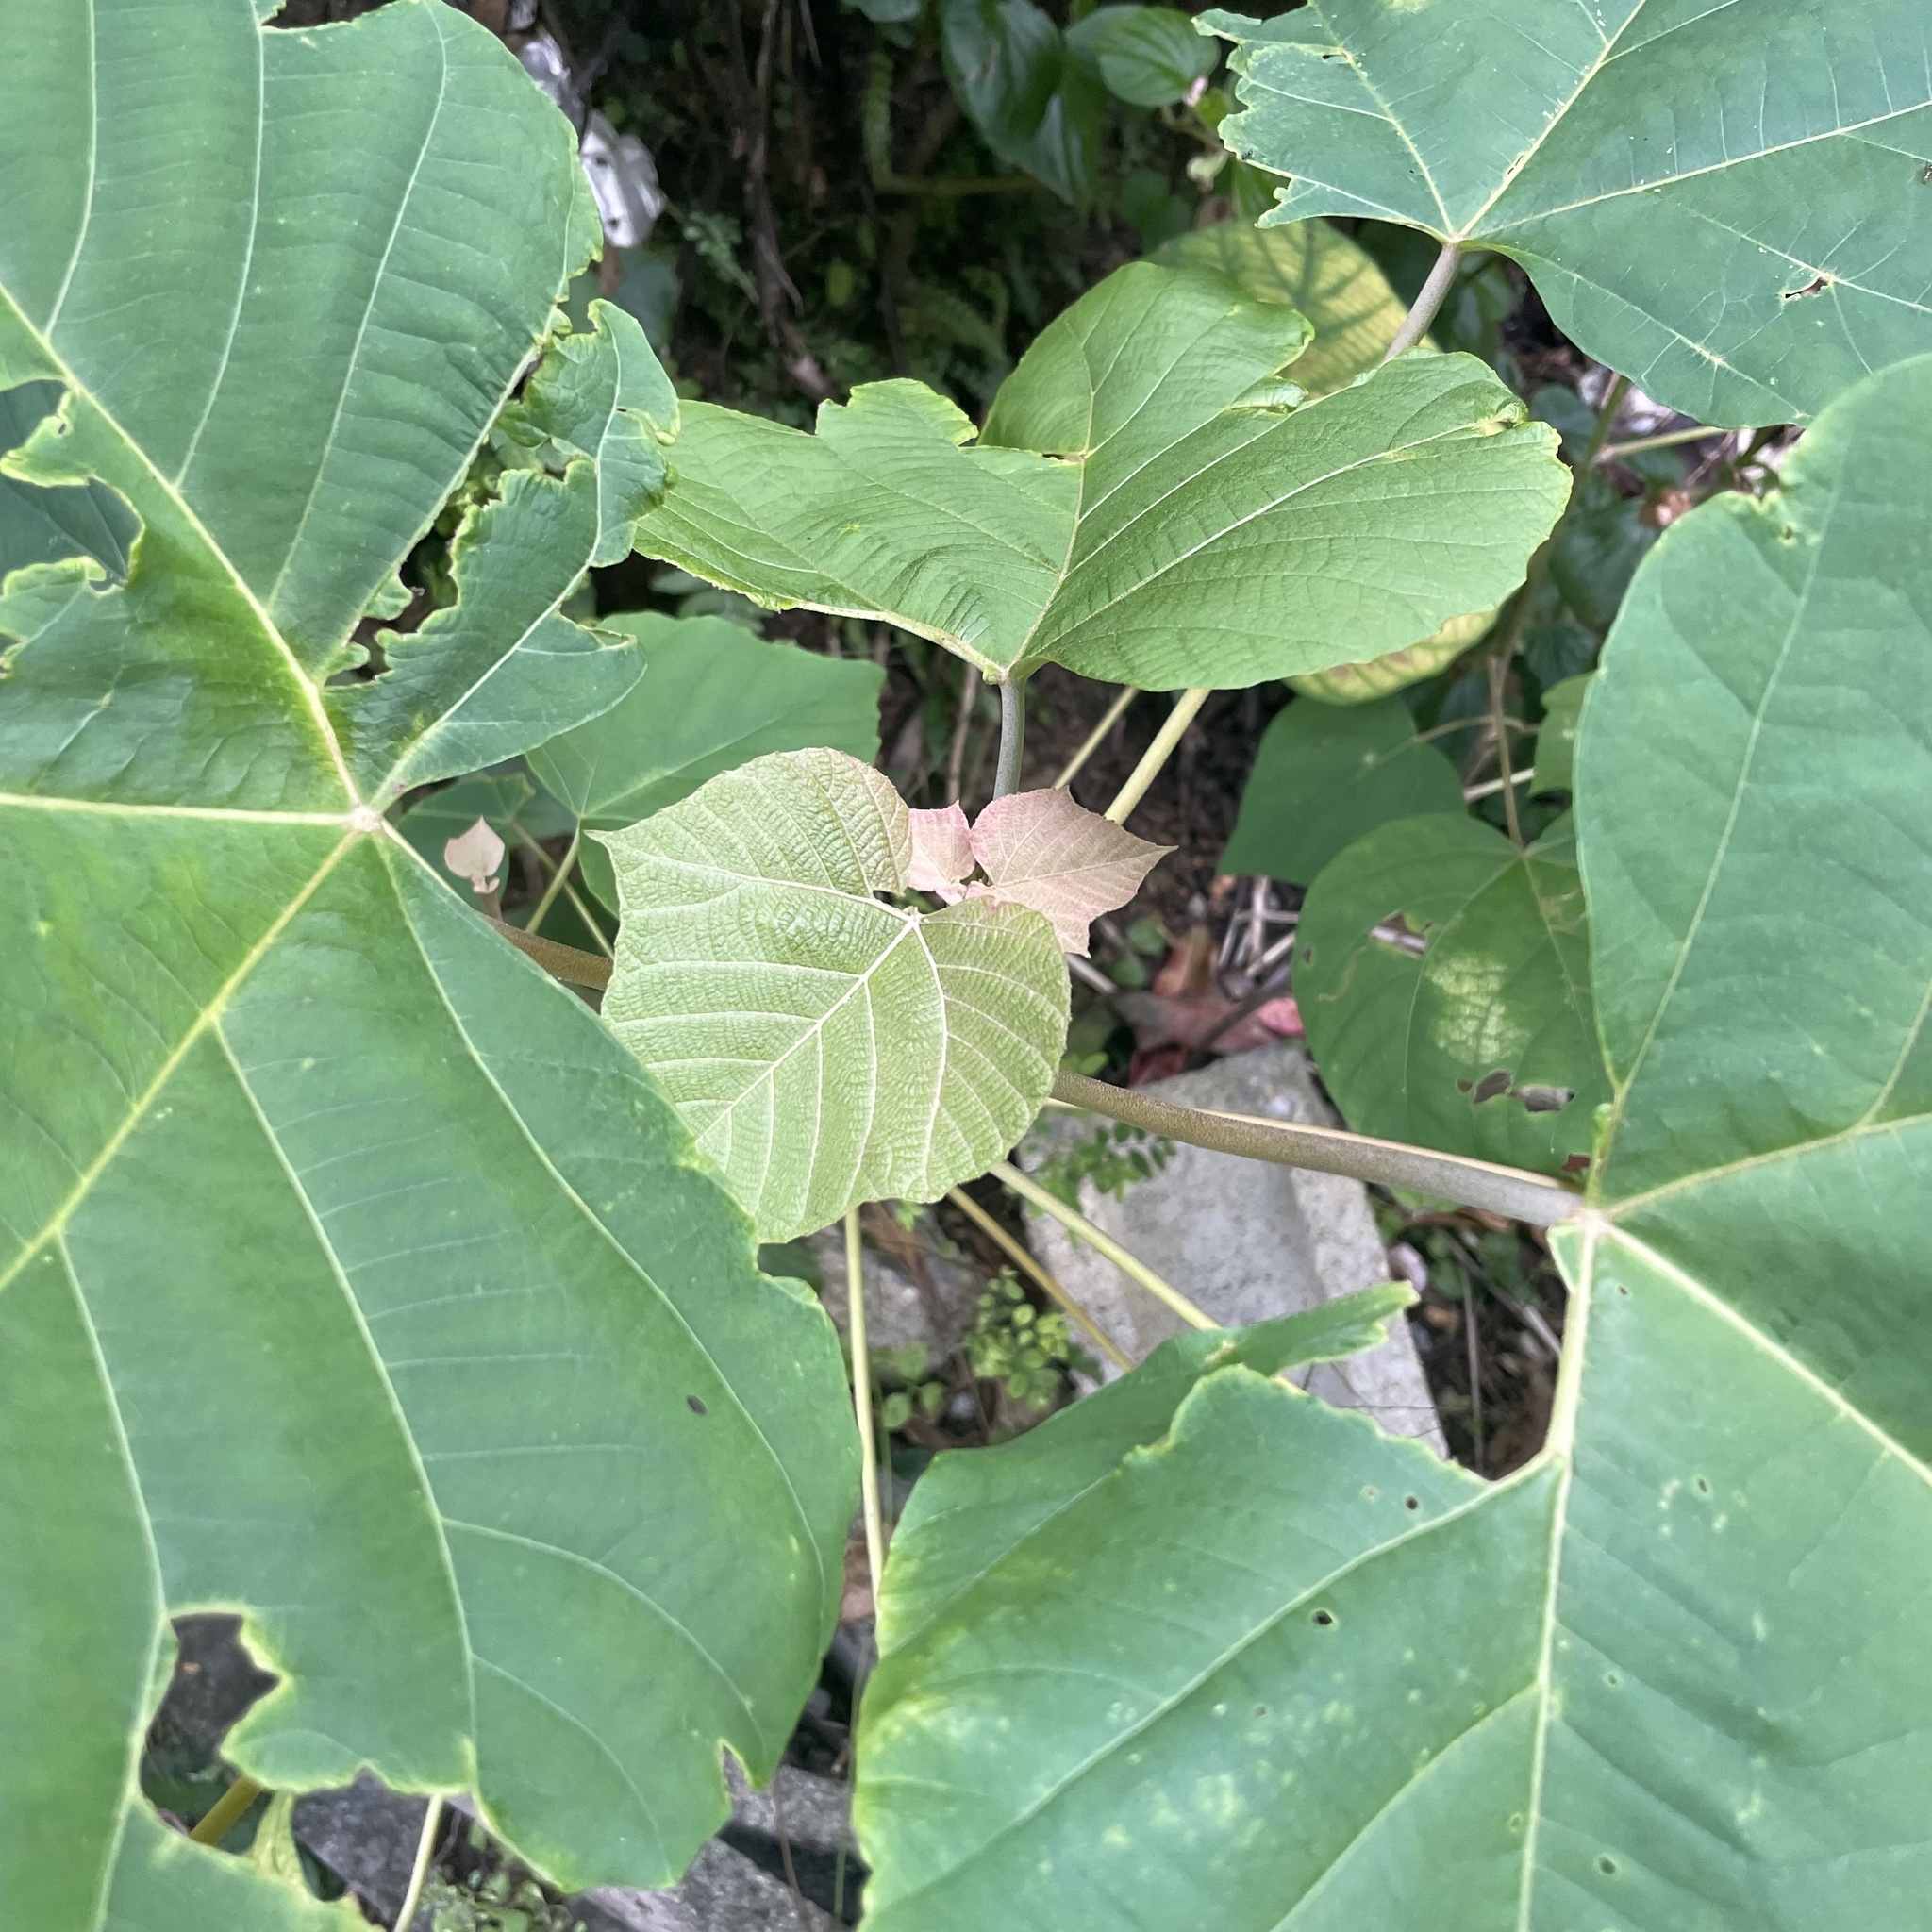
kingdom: Plantae
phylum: Tracheophyta
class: Magnoliopsida
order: Malpighiales
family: Euphorbiaceae
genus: Mallotus
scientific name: Mallotus japonicus
